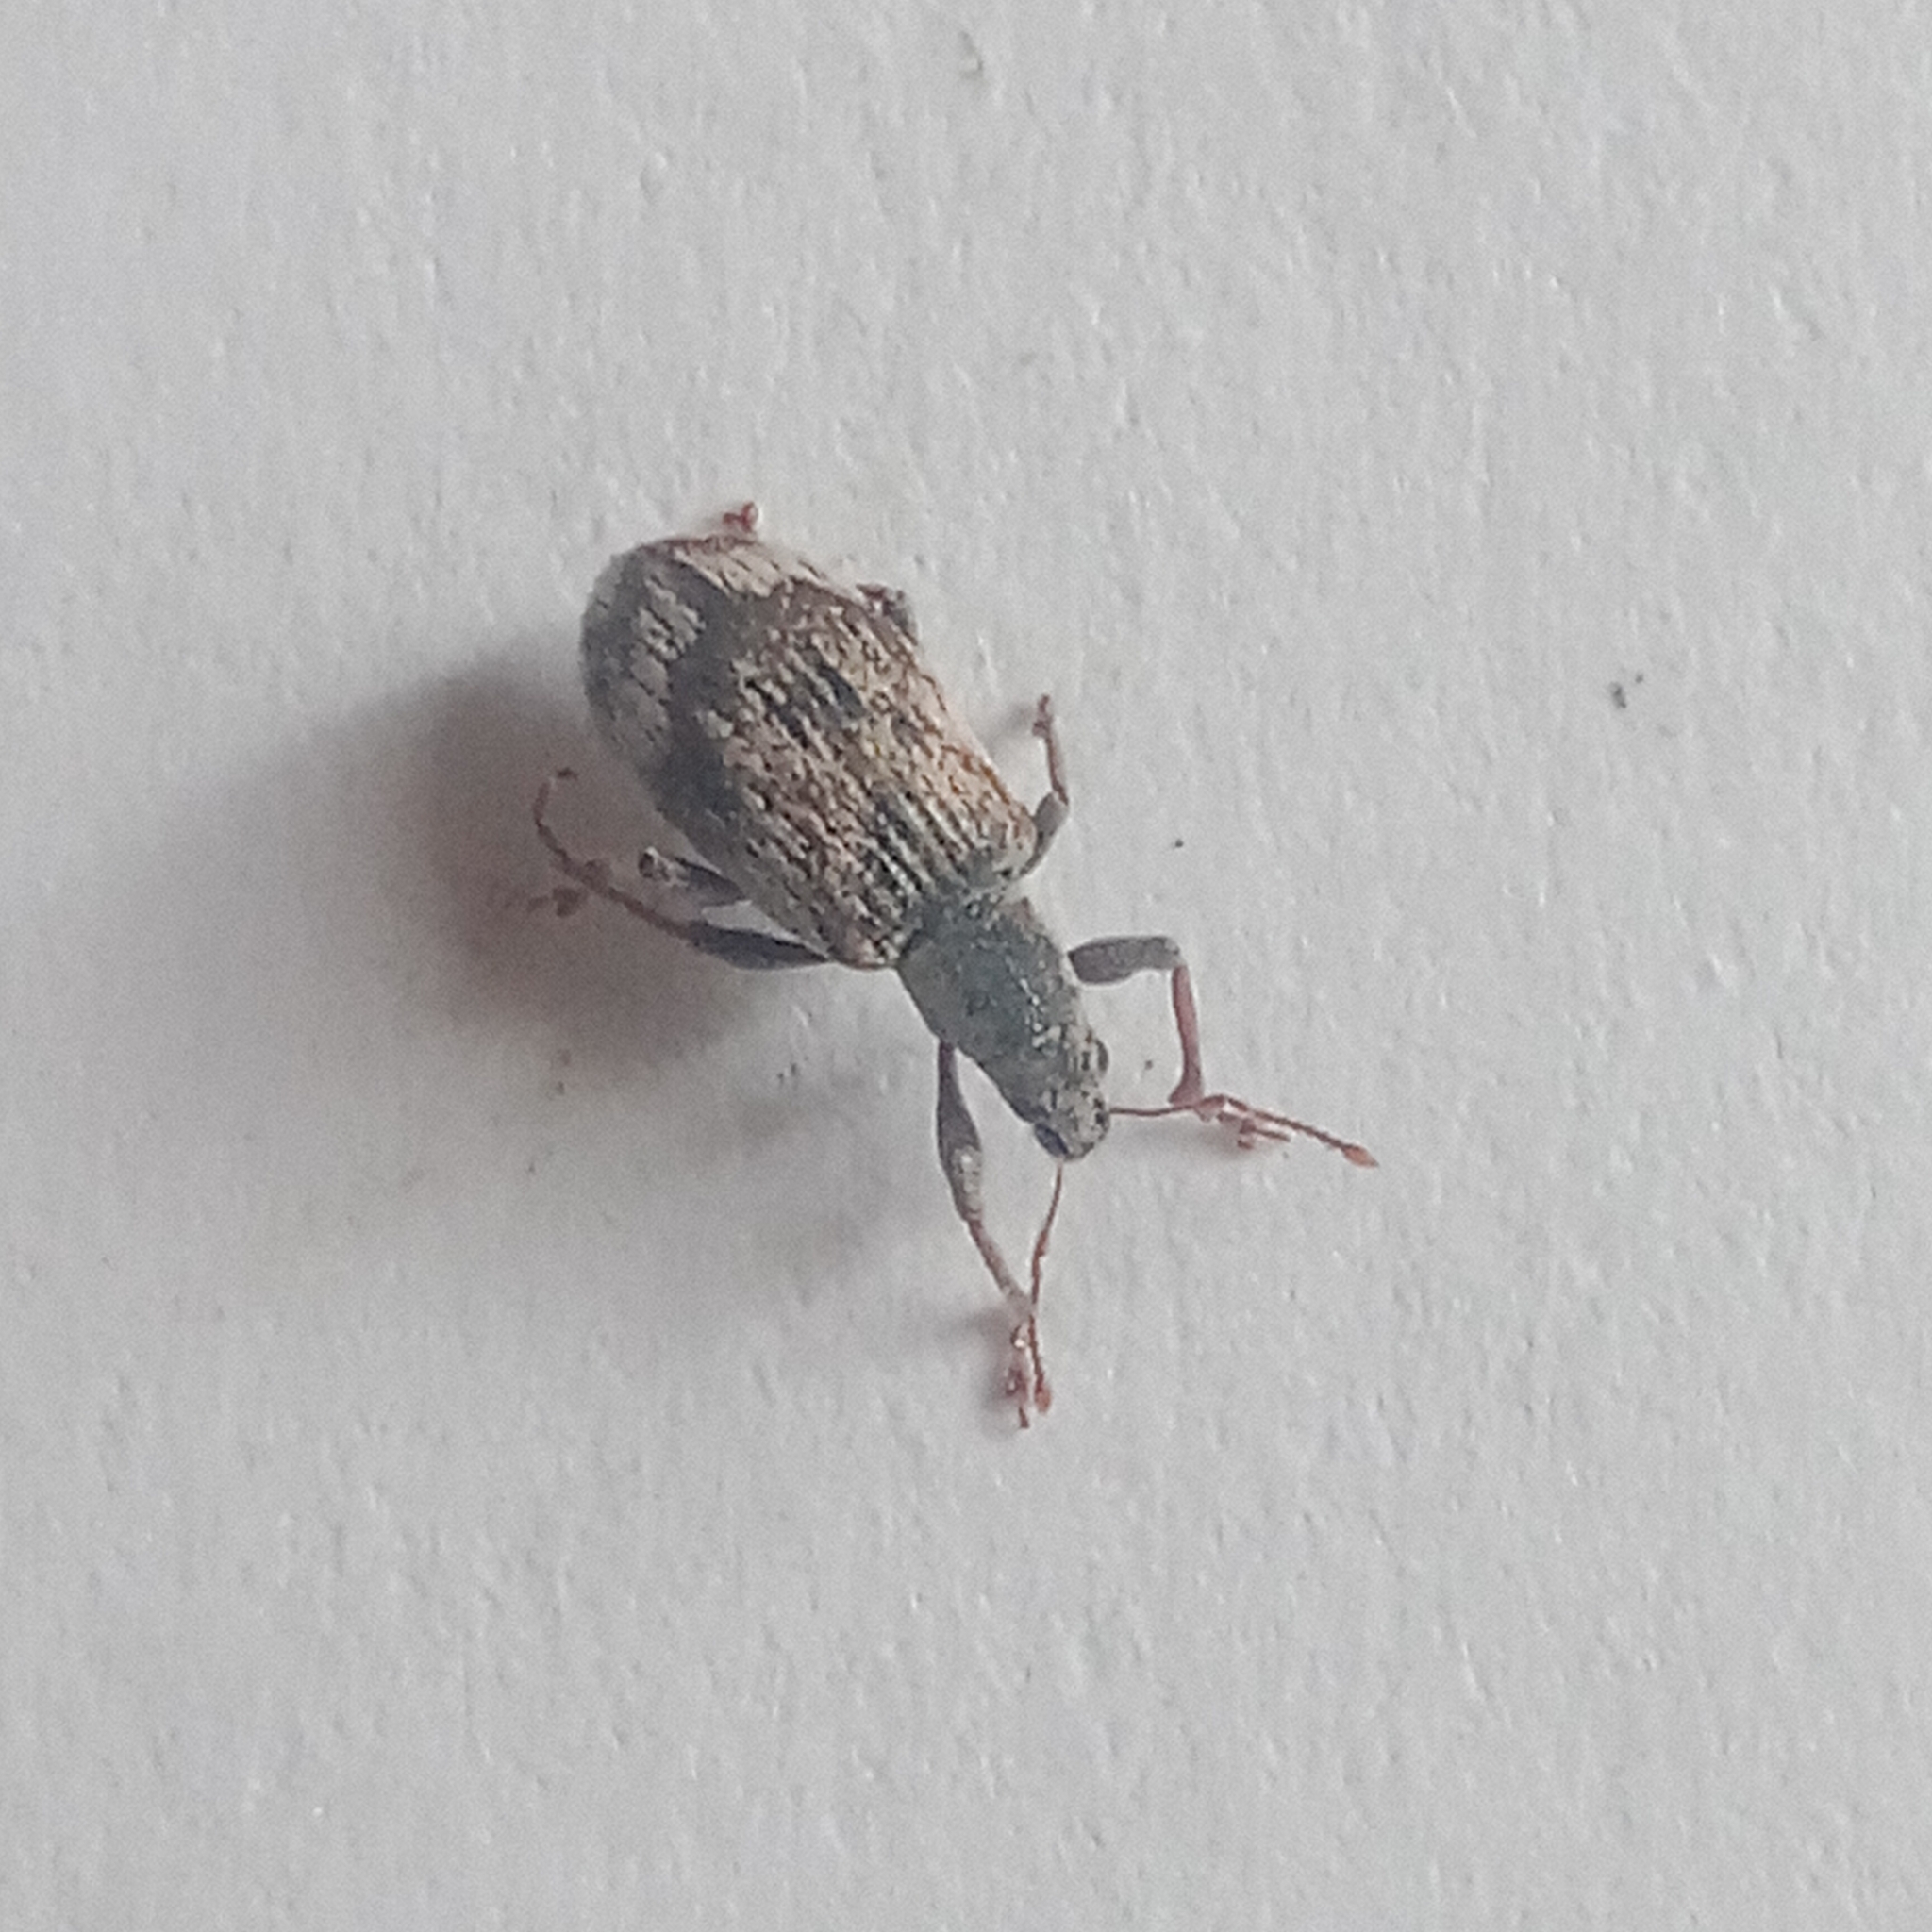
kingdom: Animalia
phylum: Arthropoda
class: Insecta
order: Coleoptera
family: Curculionidae
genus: Polydrusus
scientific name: Polydrusus tereticollis
